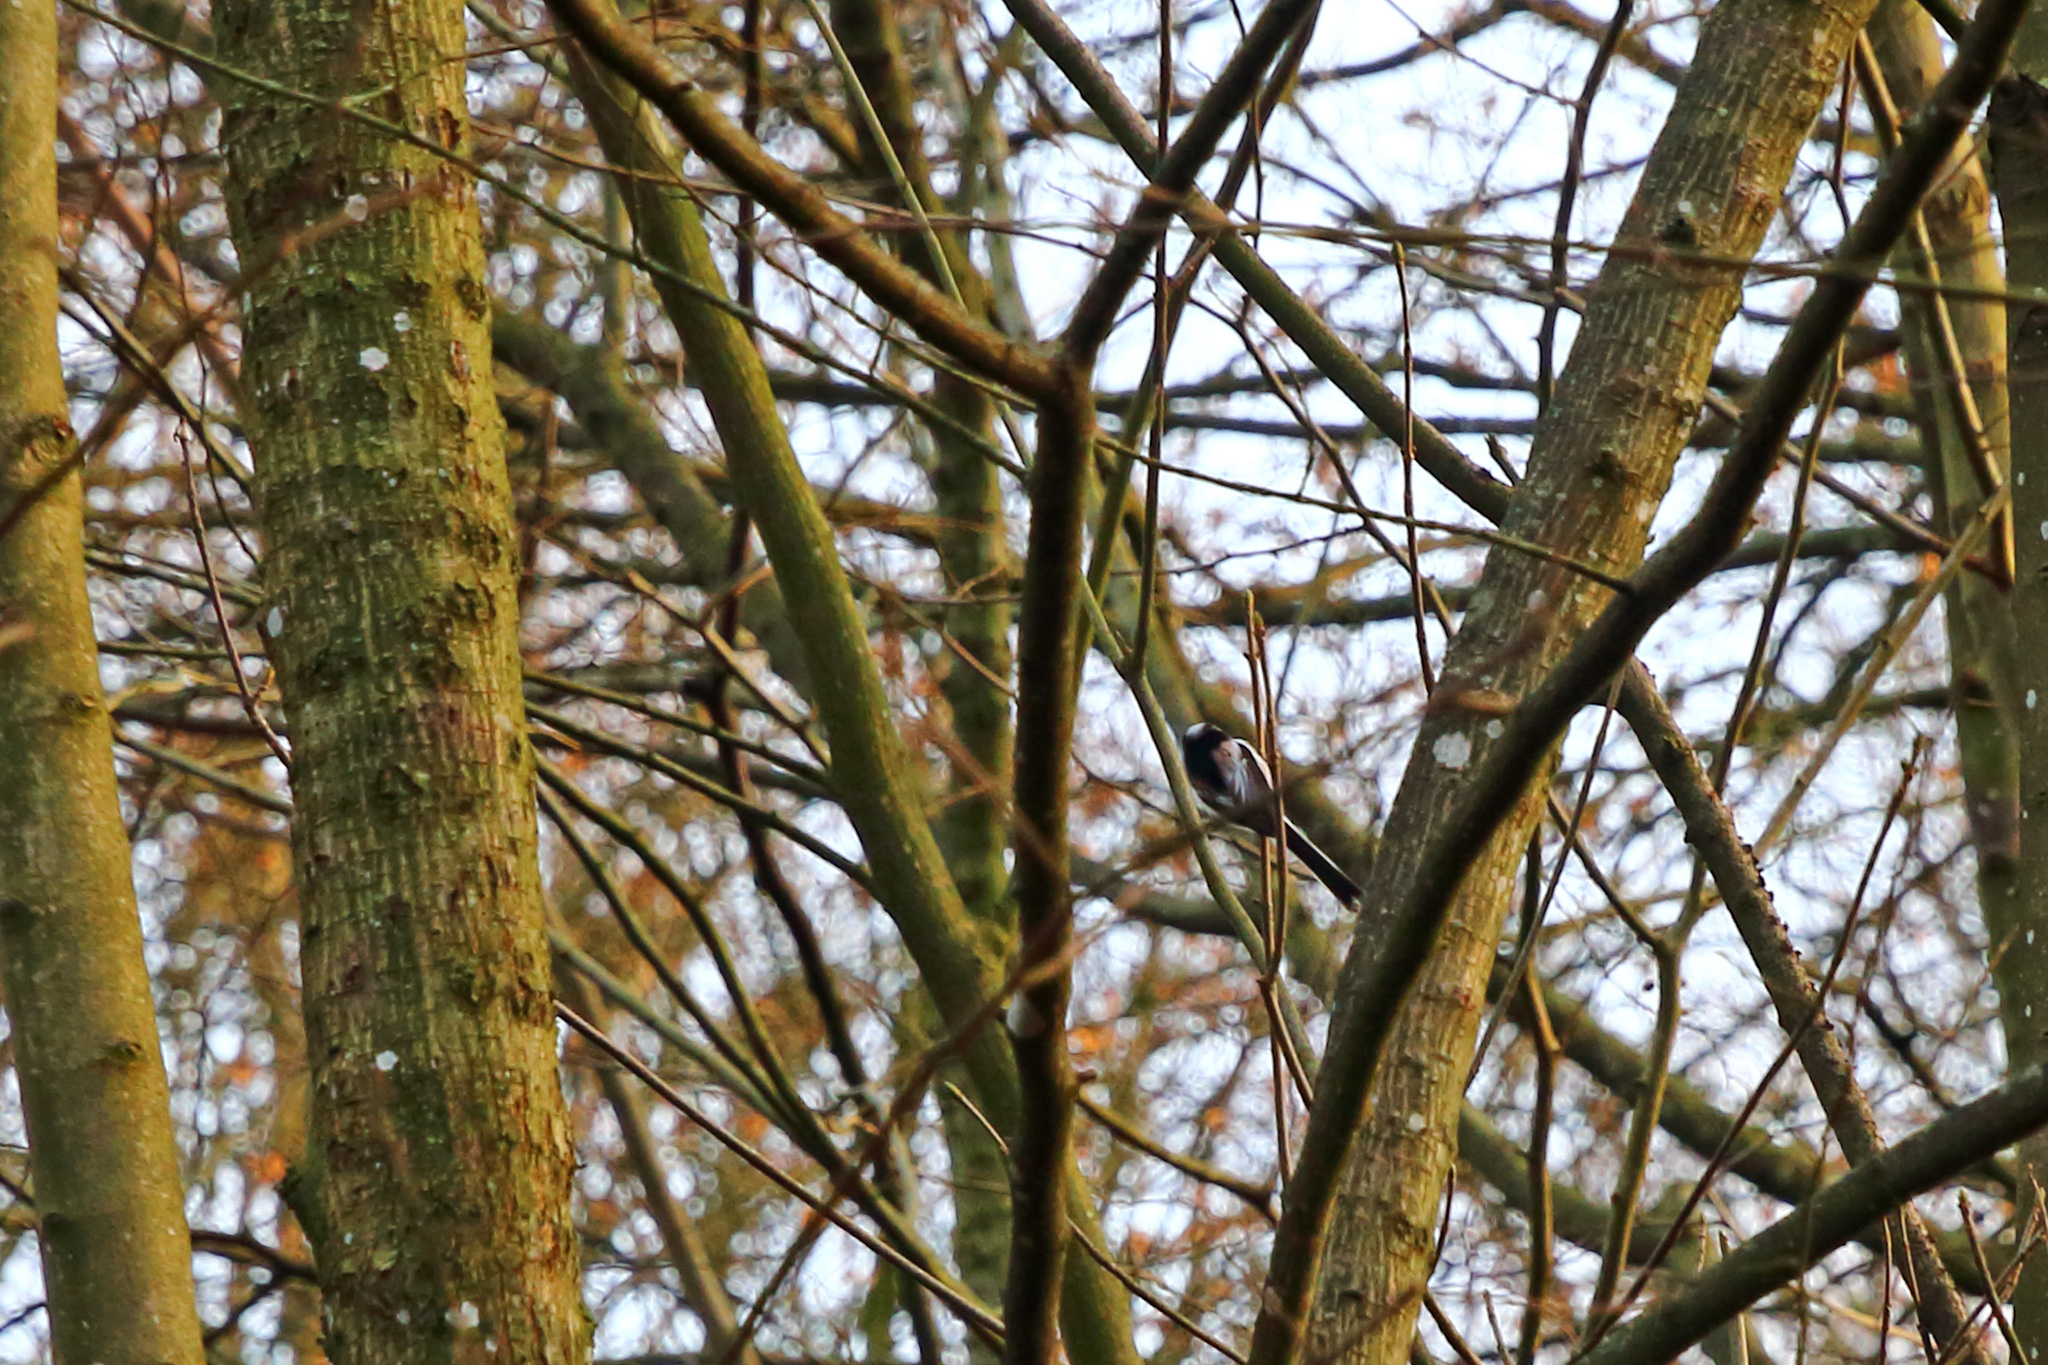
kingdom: Animalia
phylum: Chordata
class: Aves
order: Passeriformes
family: Aegithalidae
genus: Aegithalos
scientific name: Aegithalos caudatus
